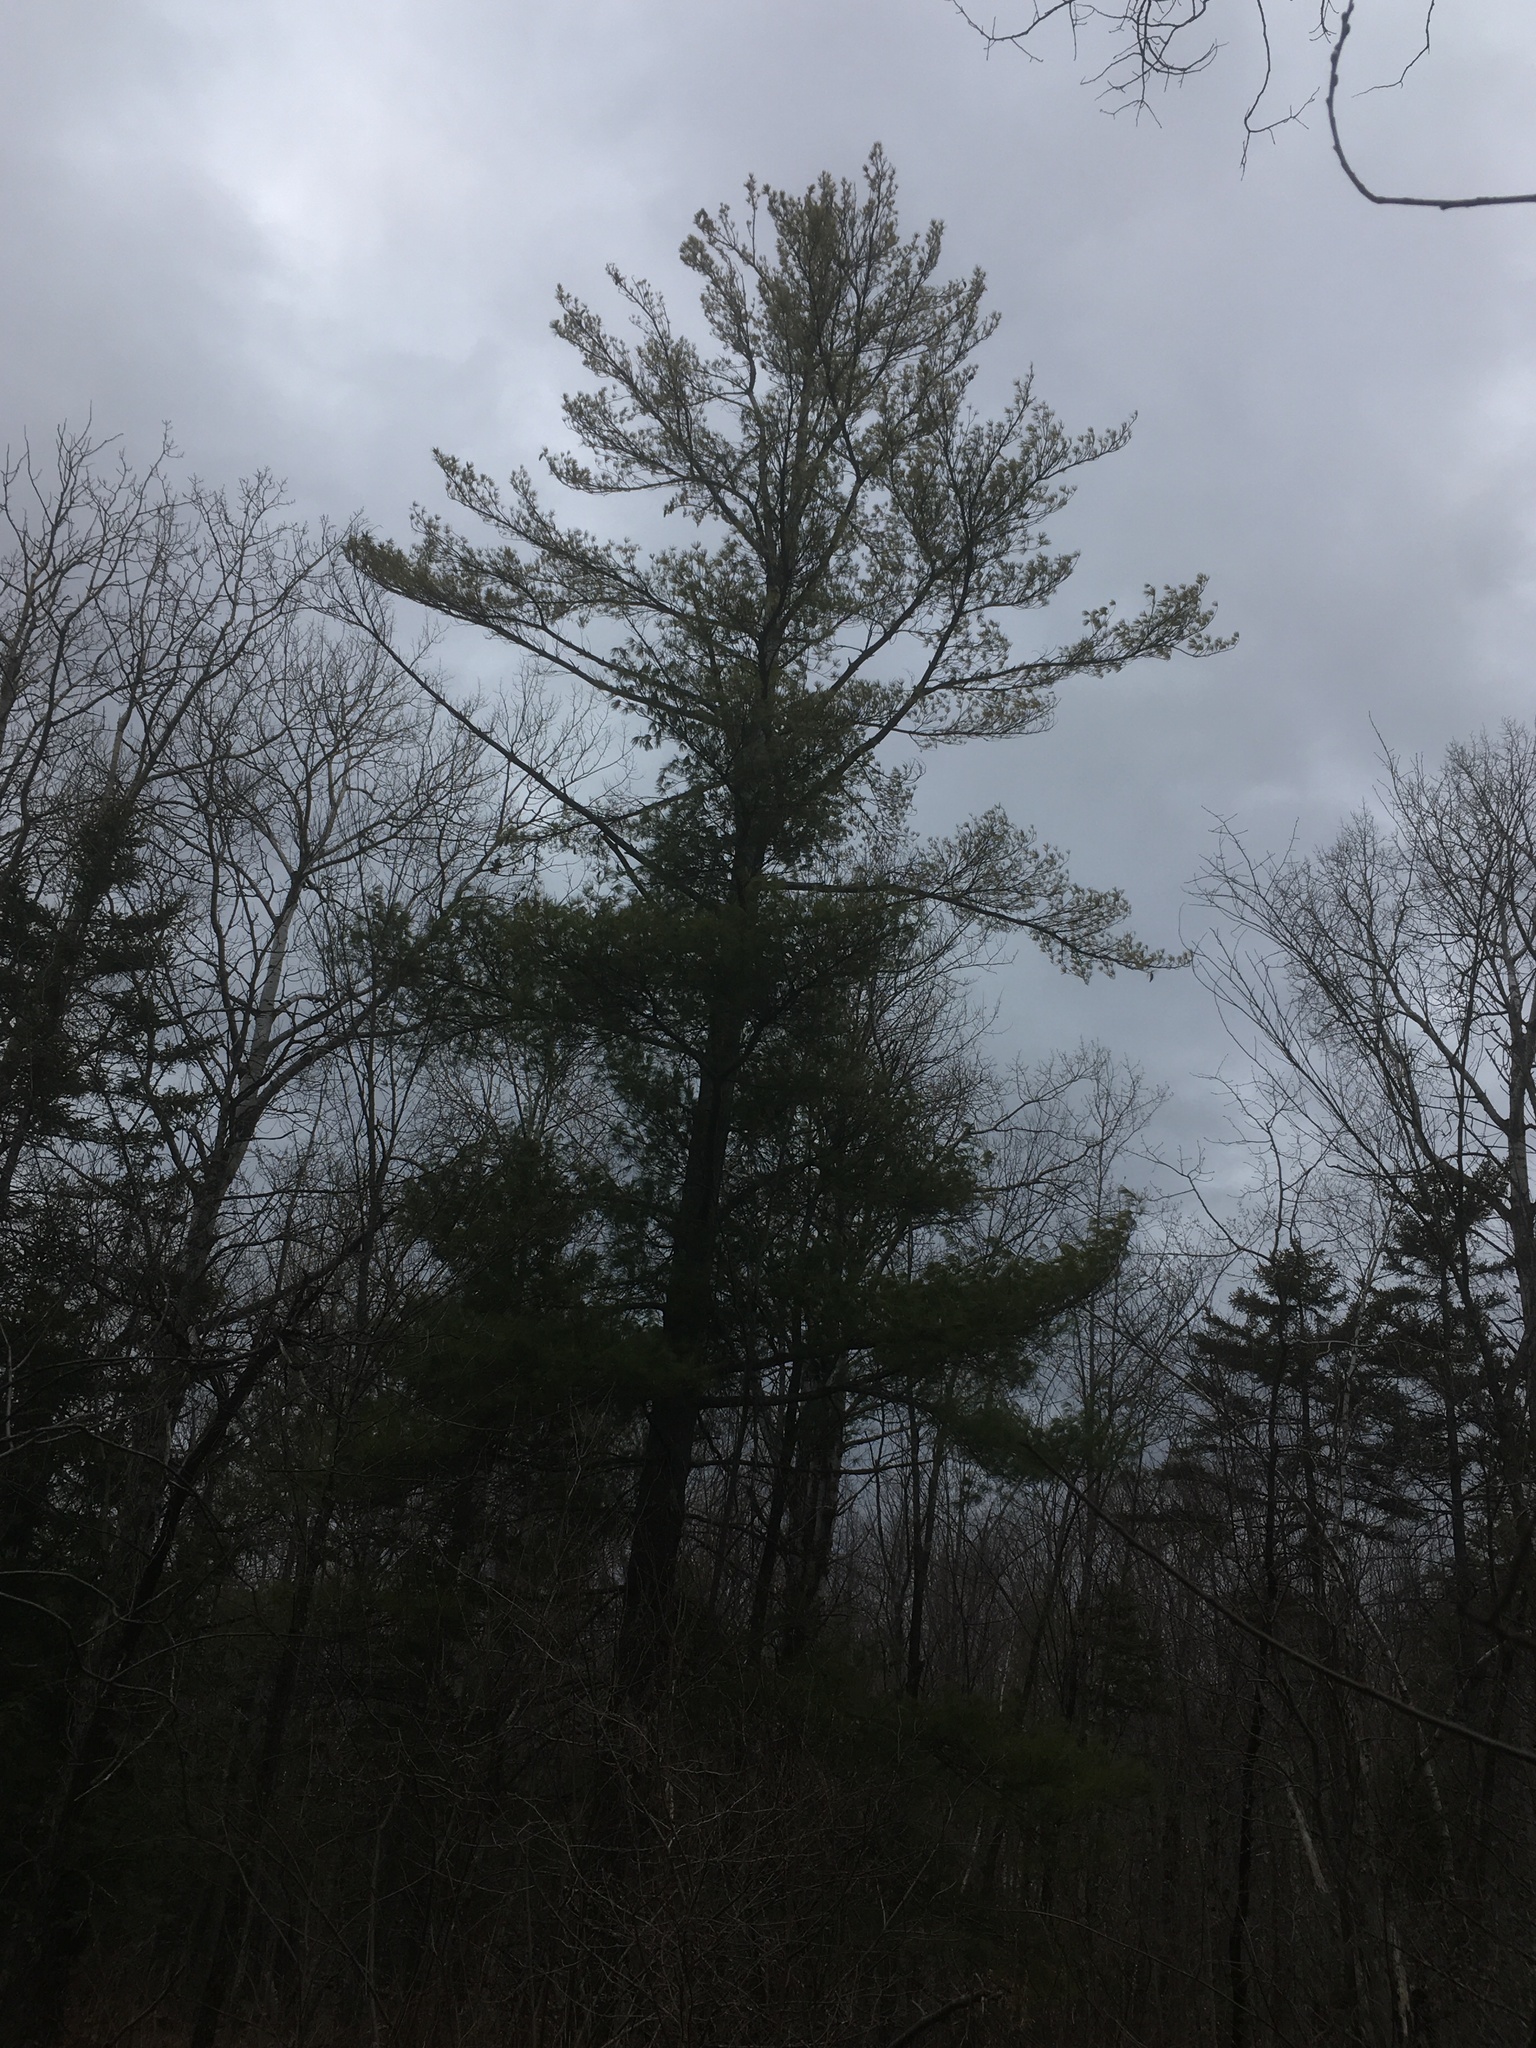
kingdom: Plantae
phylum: Tracheophyta
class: Pinopsida
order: Pinales
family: Pinaceae
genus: Pinus
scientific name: Pinus strobus
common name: Weymouth pine
